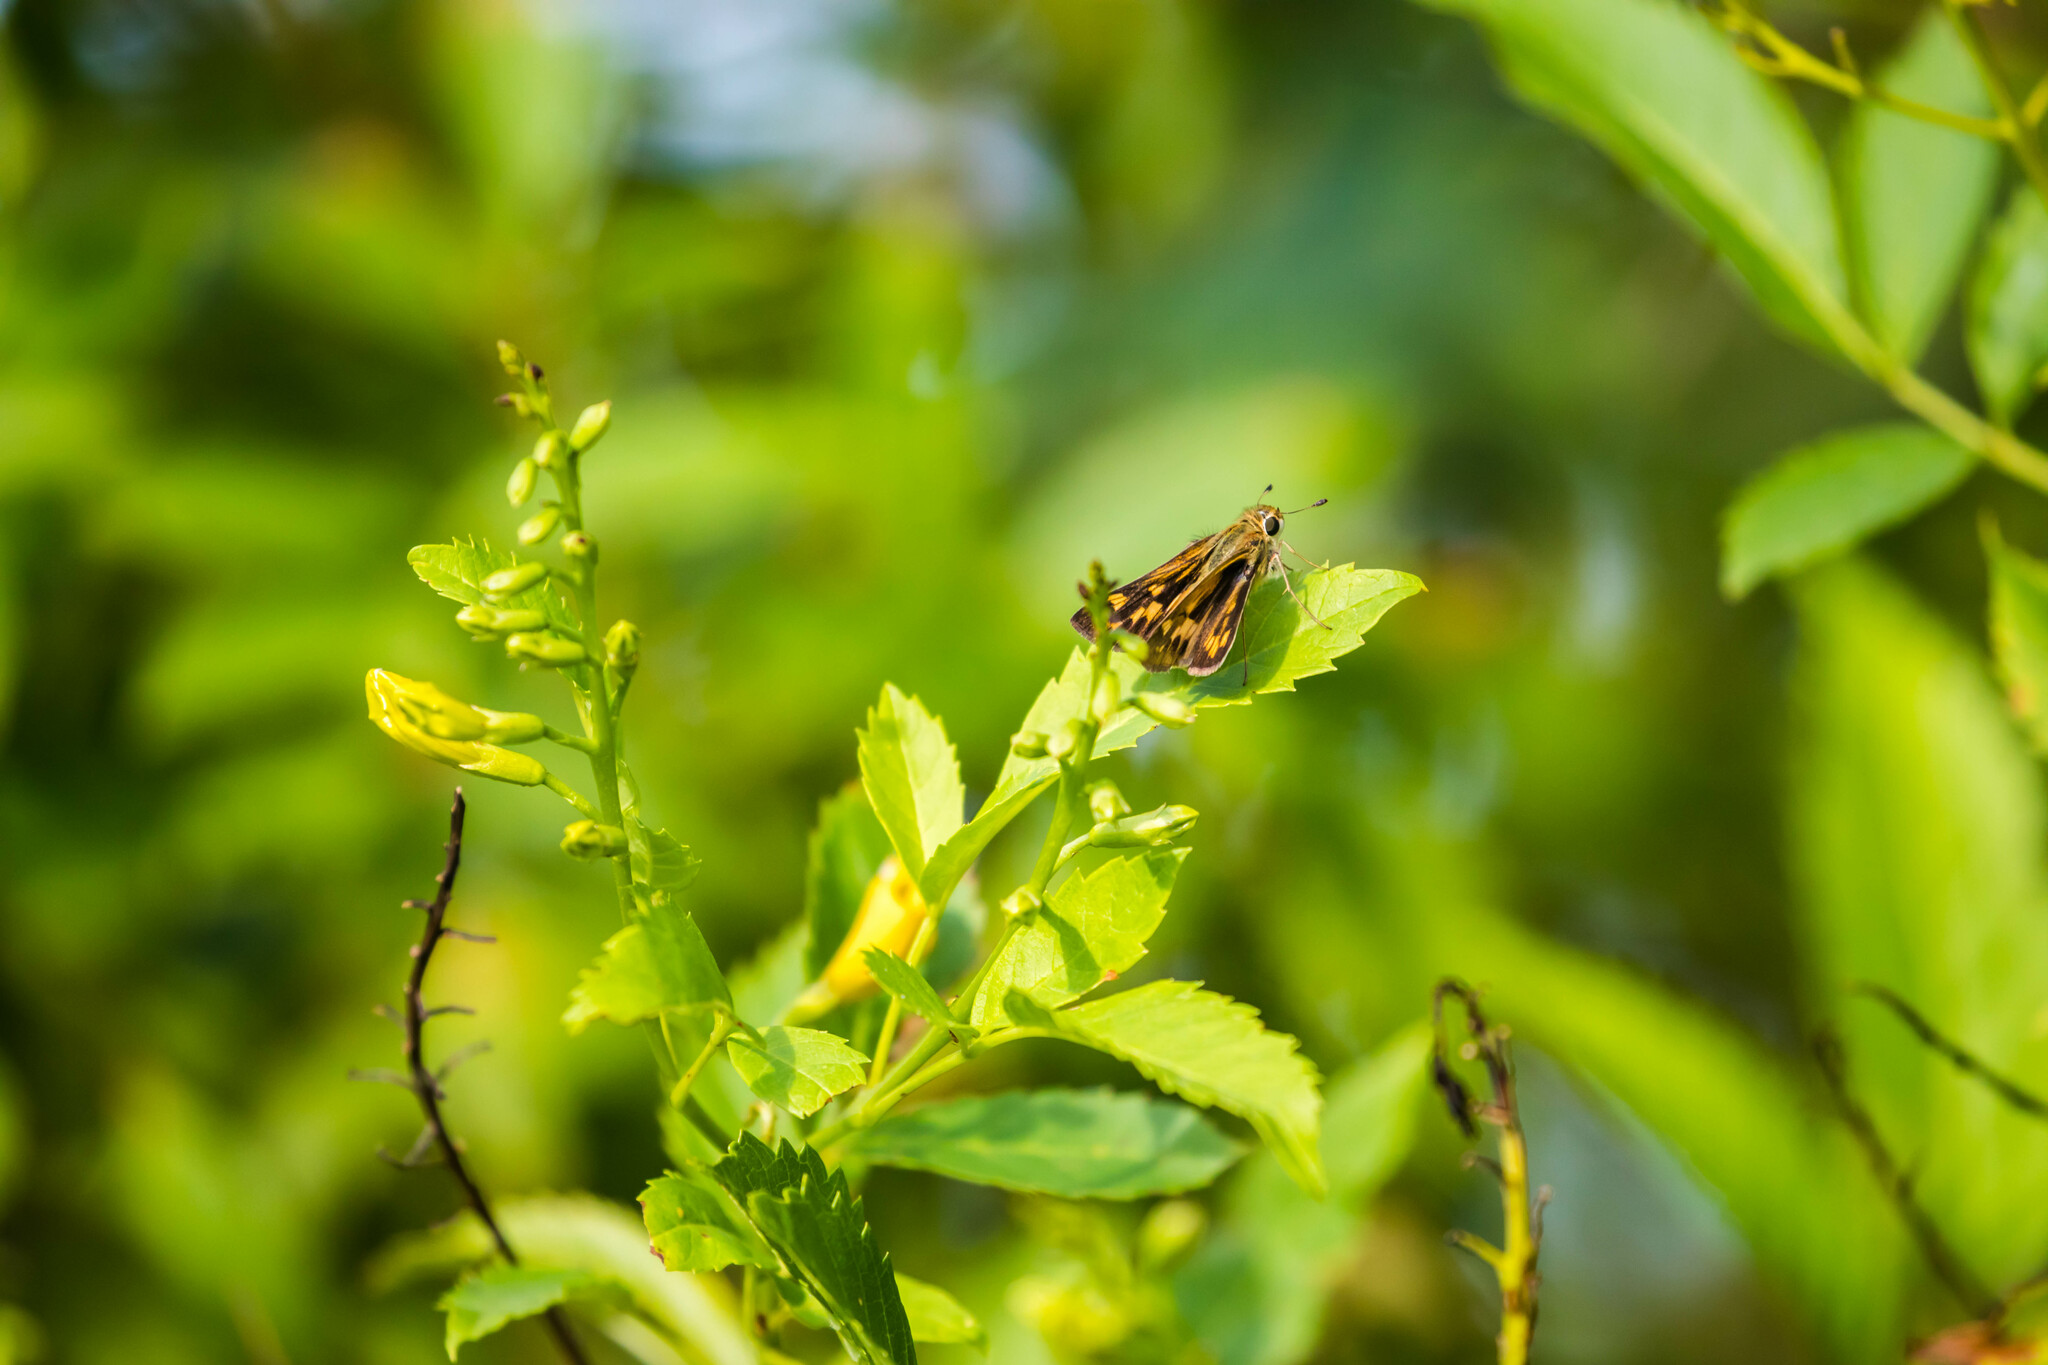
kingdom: Animalia
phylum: Arthropoda
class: Insecta
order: Lepidoptera
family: Hesperiidae
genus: Polites
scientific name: Polites vibex
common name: Whirlabout
